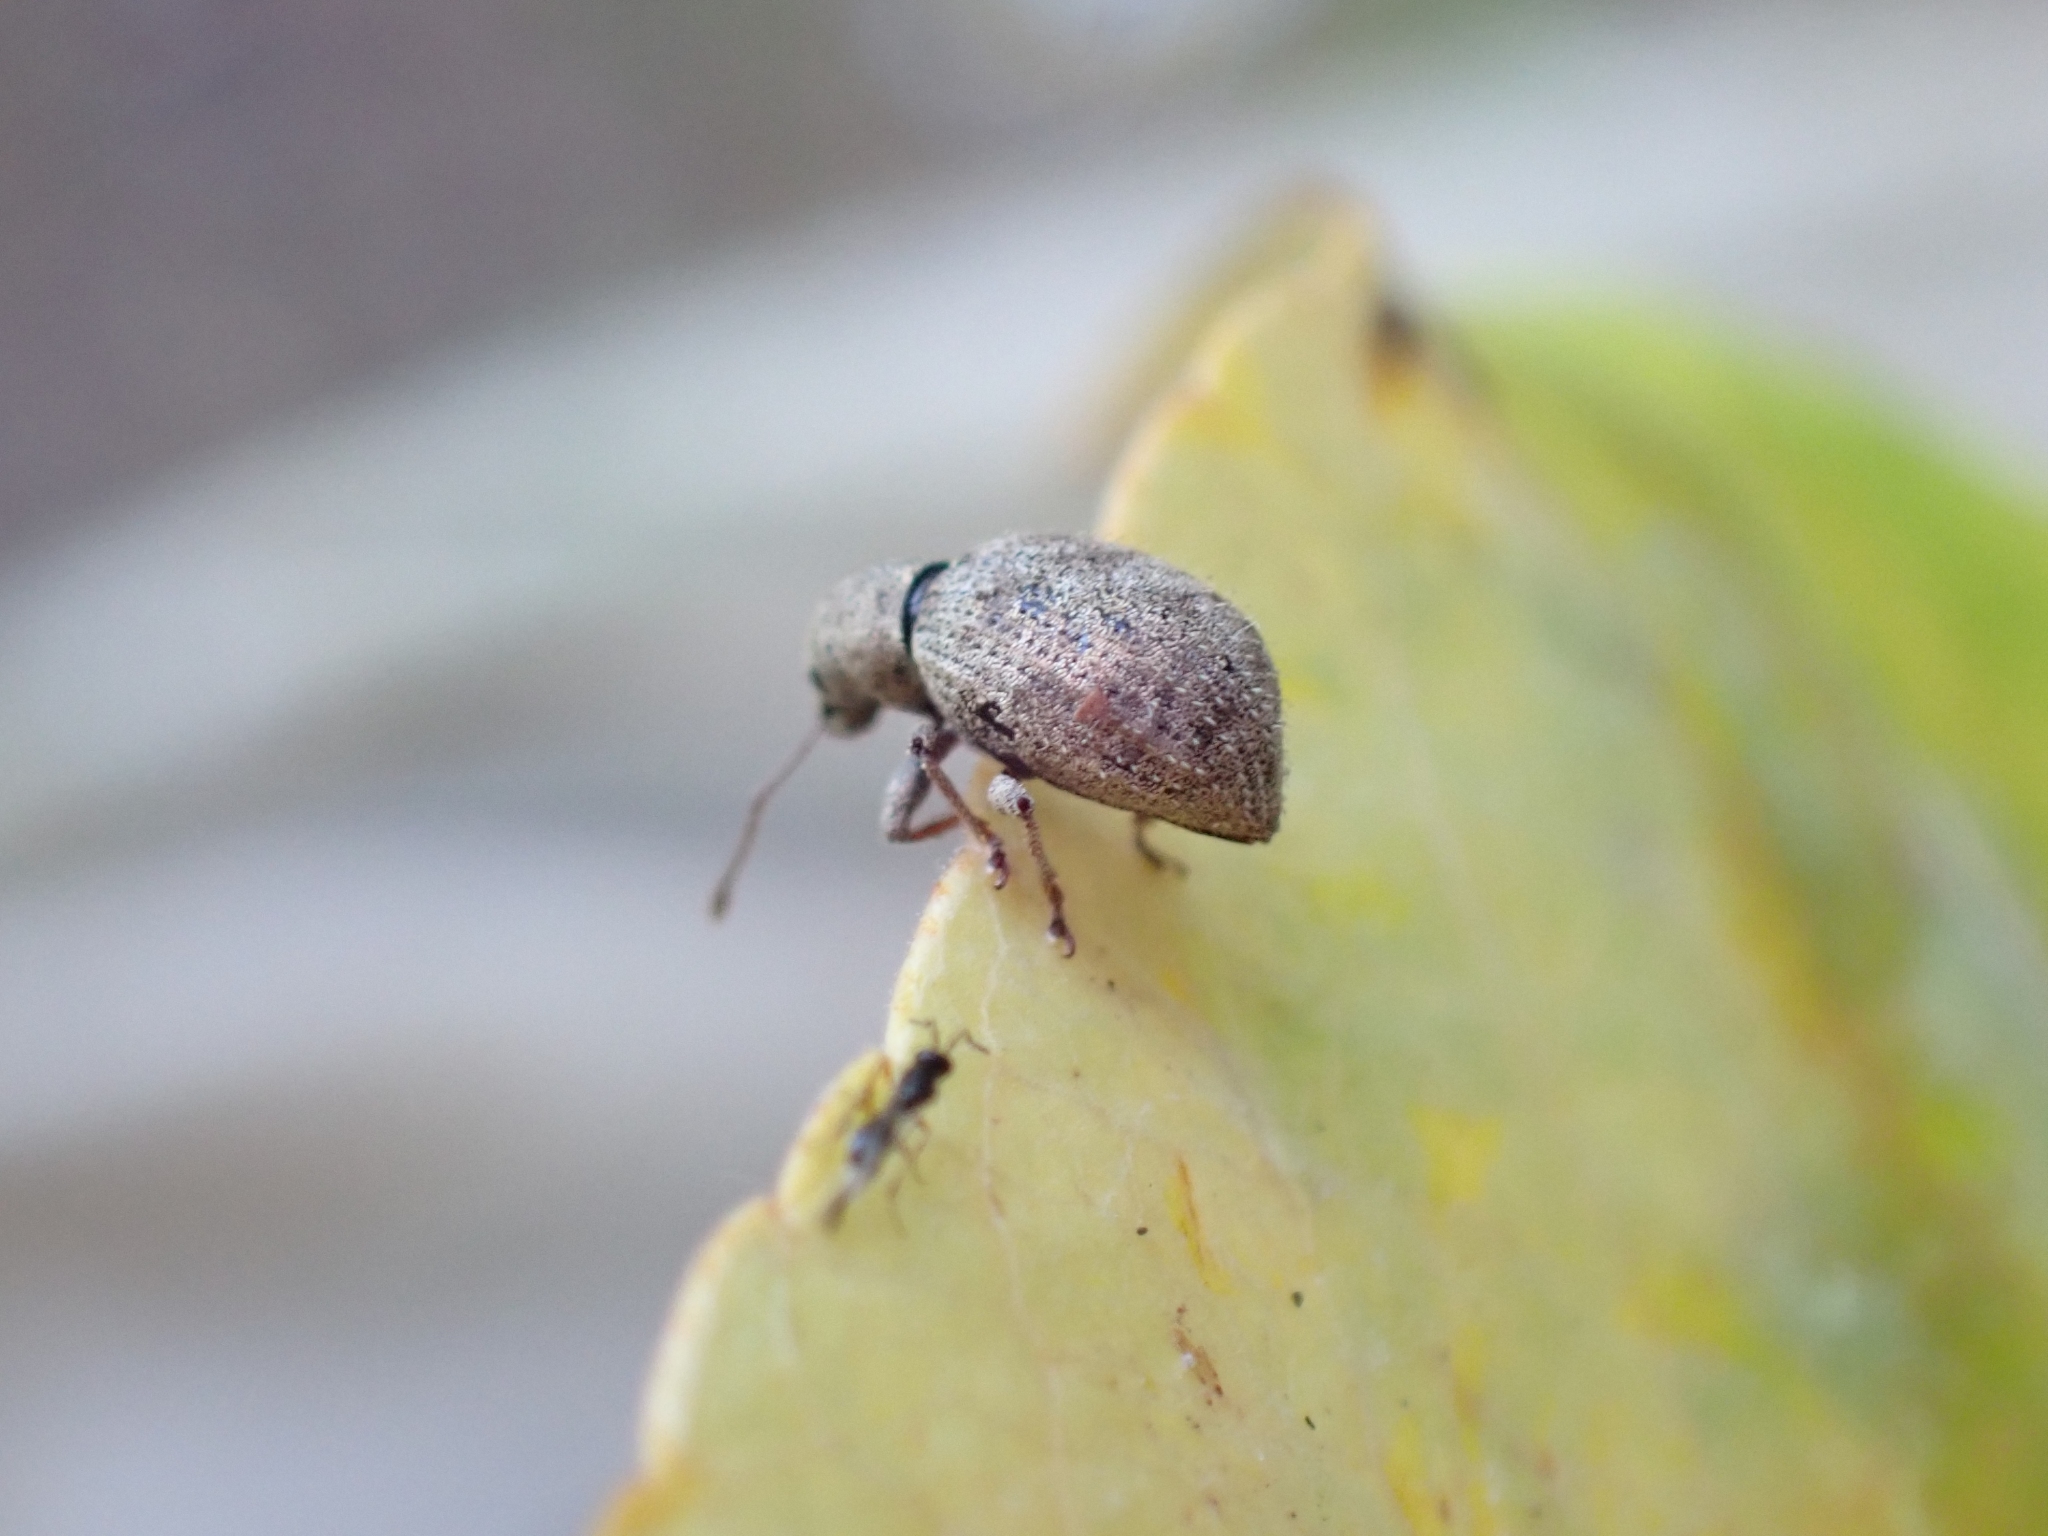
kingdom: Animalia
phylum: Arthropoda
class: Insecta
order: Coleoptera
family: Curculionidae
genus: Sciaphilus
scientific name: Sciaphilus asperatus
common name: Weevil
